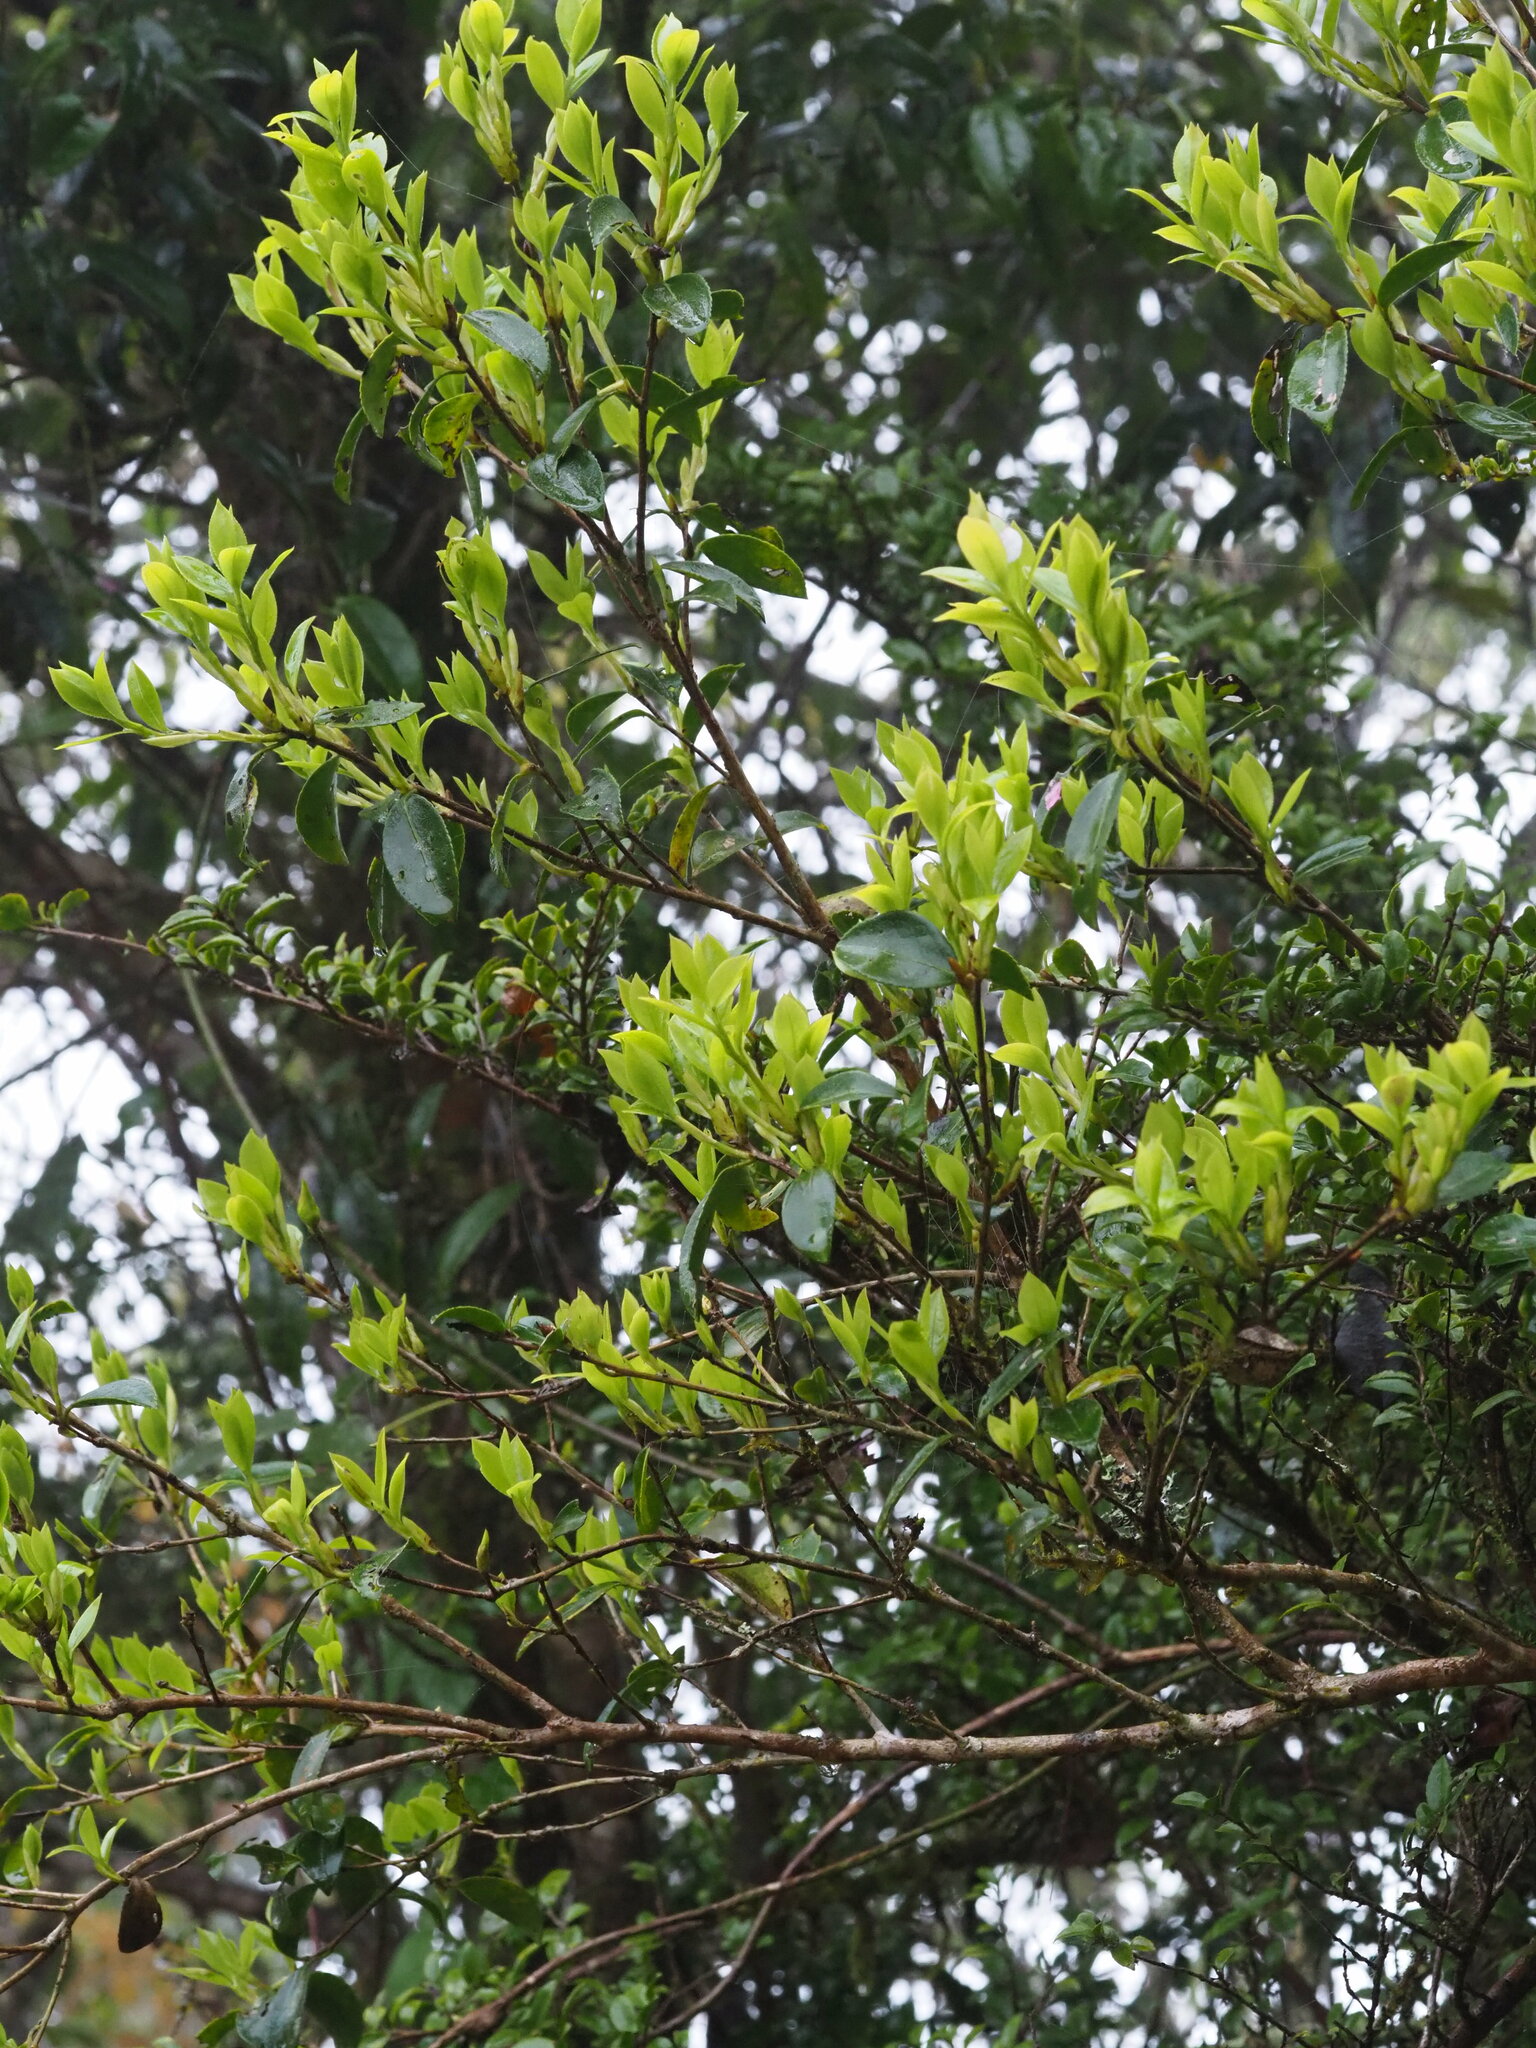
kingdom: Plantae
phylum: Tracheophyta
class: Magnoliopsida
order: Ericales
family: Theaceae
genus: Camellia
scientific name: Camellia brevistyla
